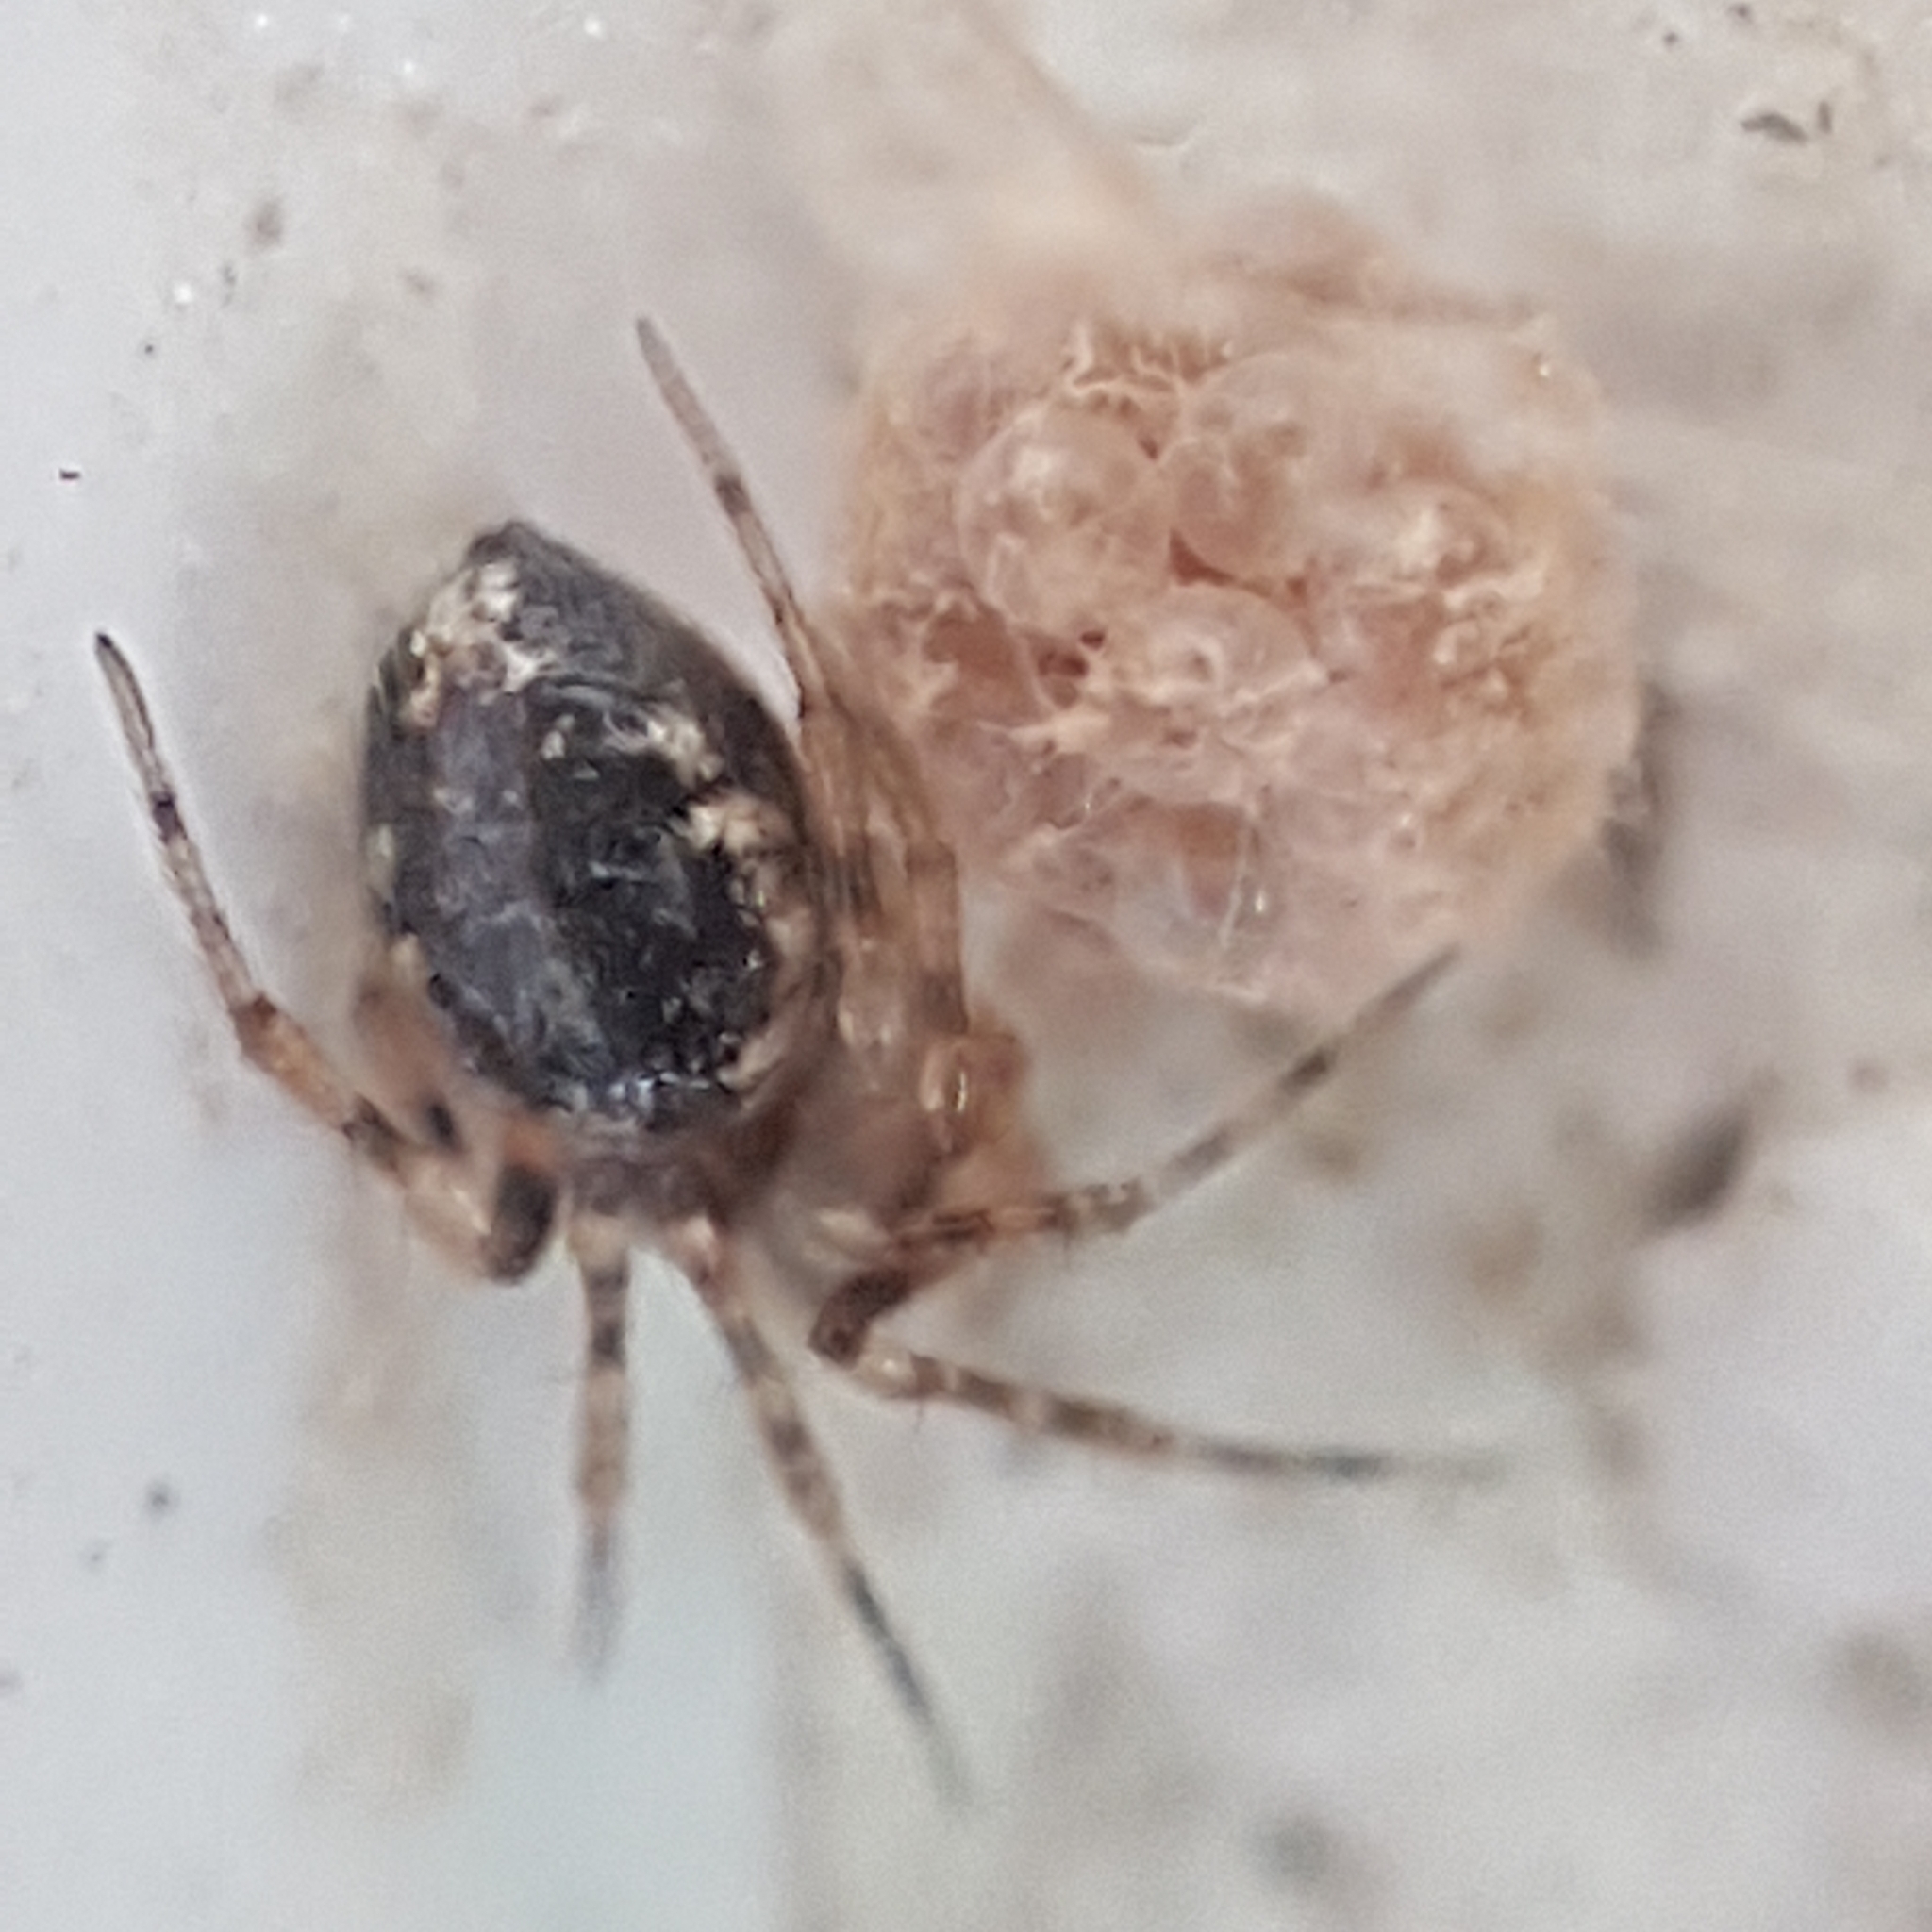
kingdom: Animalia
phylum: Arthropoda
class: Arachnida
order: Araneae
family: Theridiidae
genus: Sardinidion
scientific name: Sardinidion blackwalli
